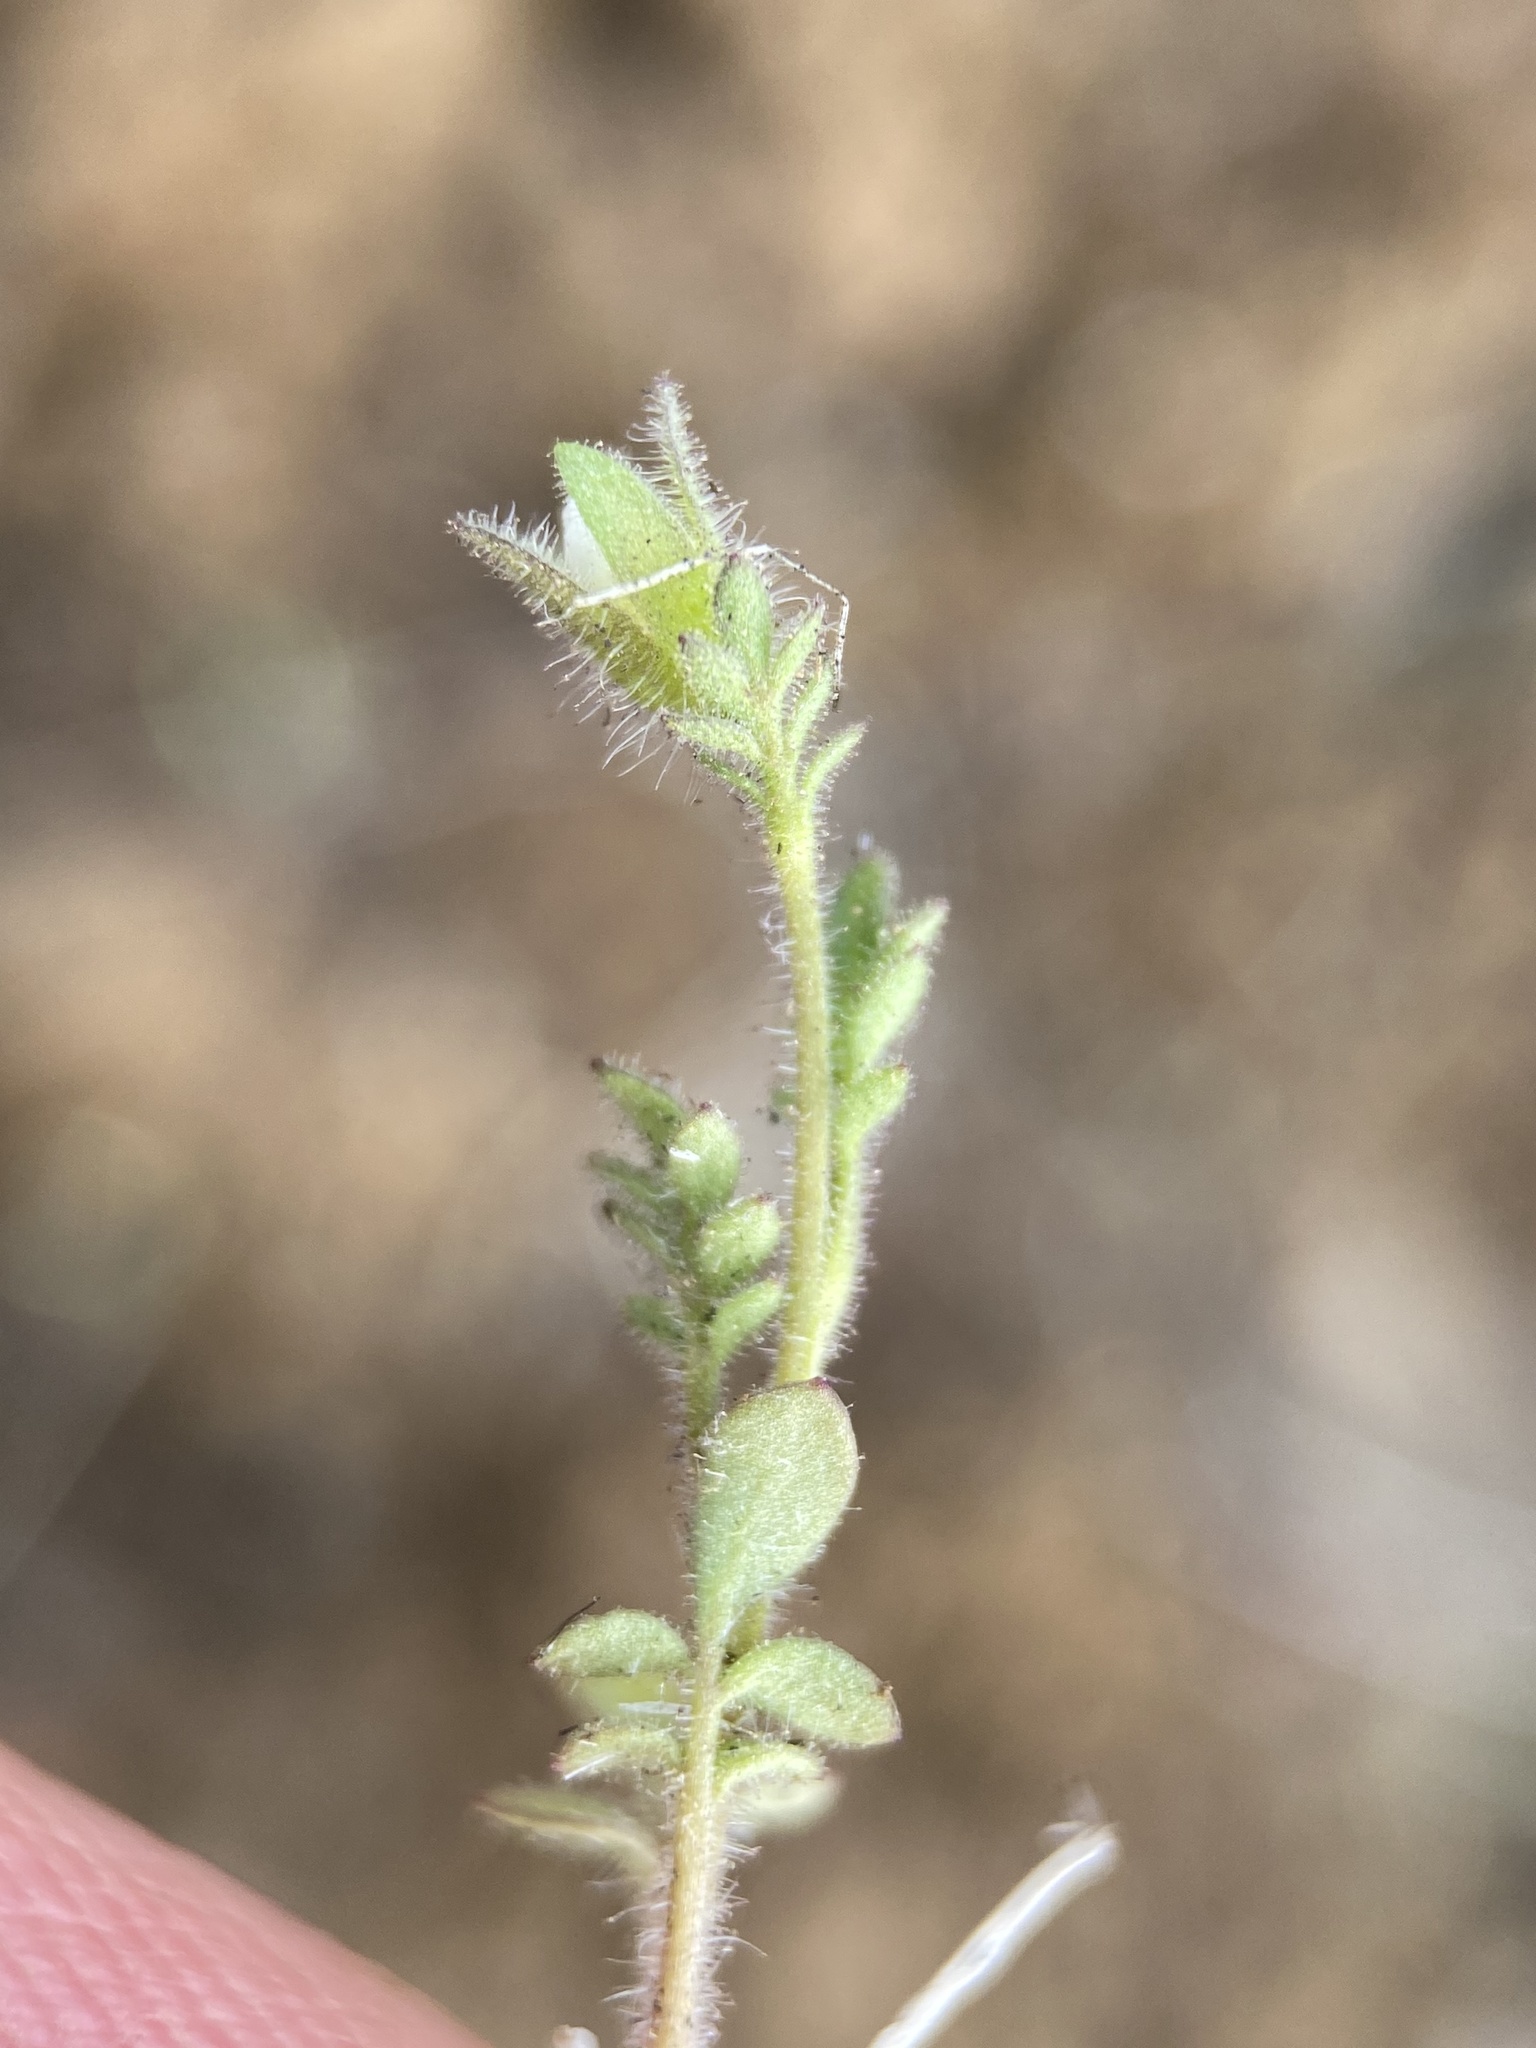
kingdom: Plantae
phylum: Tracheophyta
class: Magnoliopsida
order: Ericales
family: Polemoniaceae
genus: Polemonium
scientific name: Polemonium micranthum
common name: Annual jacob's-ladder
